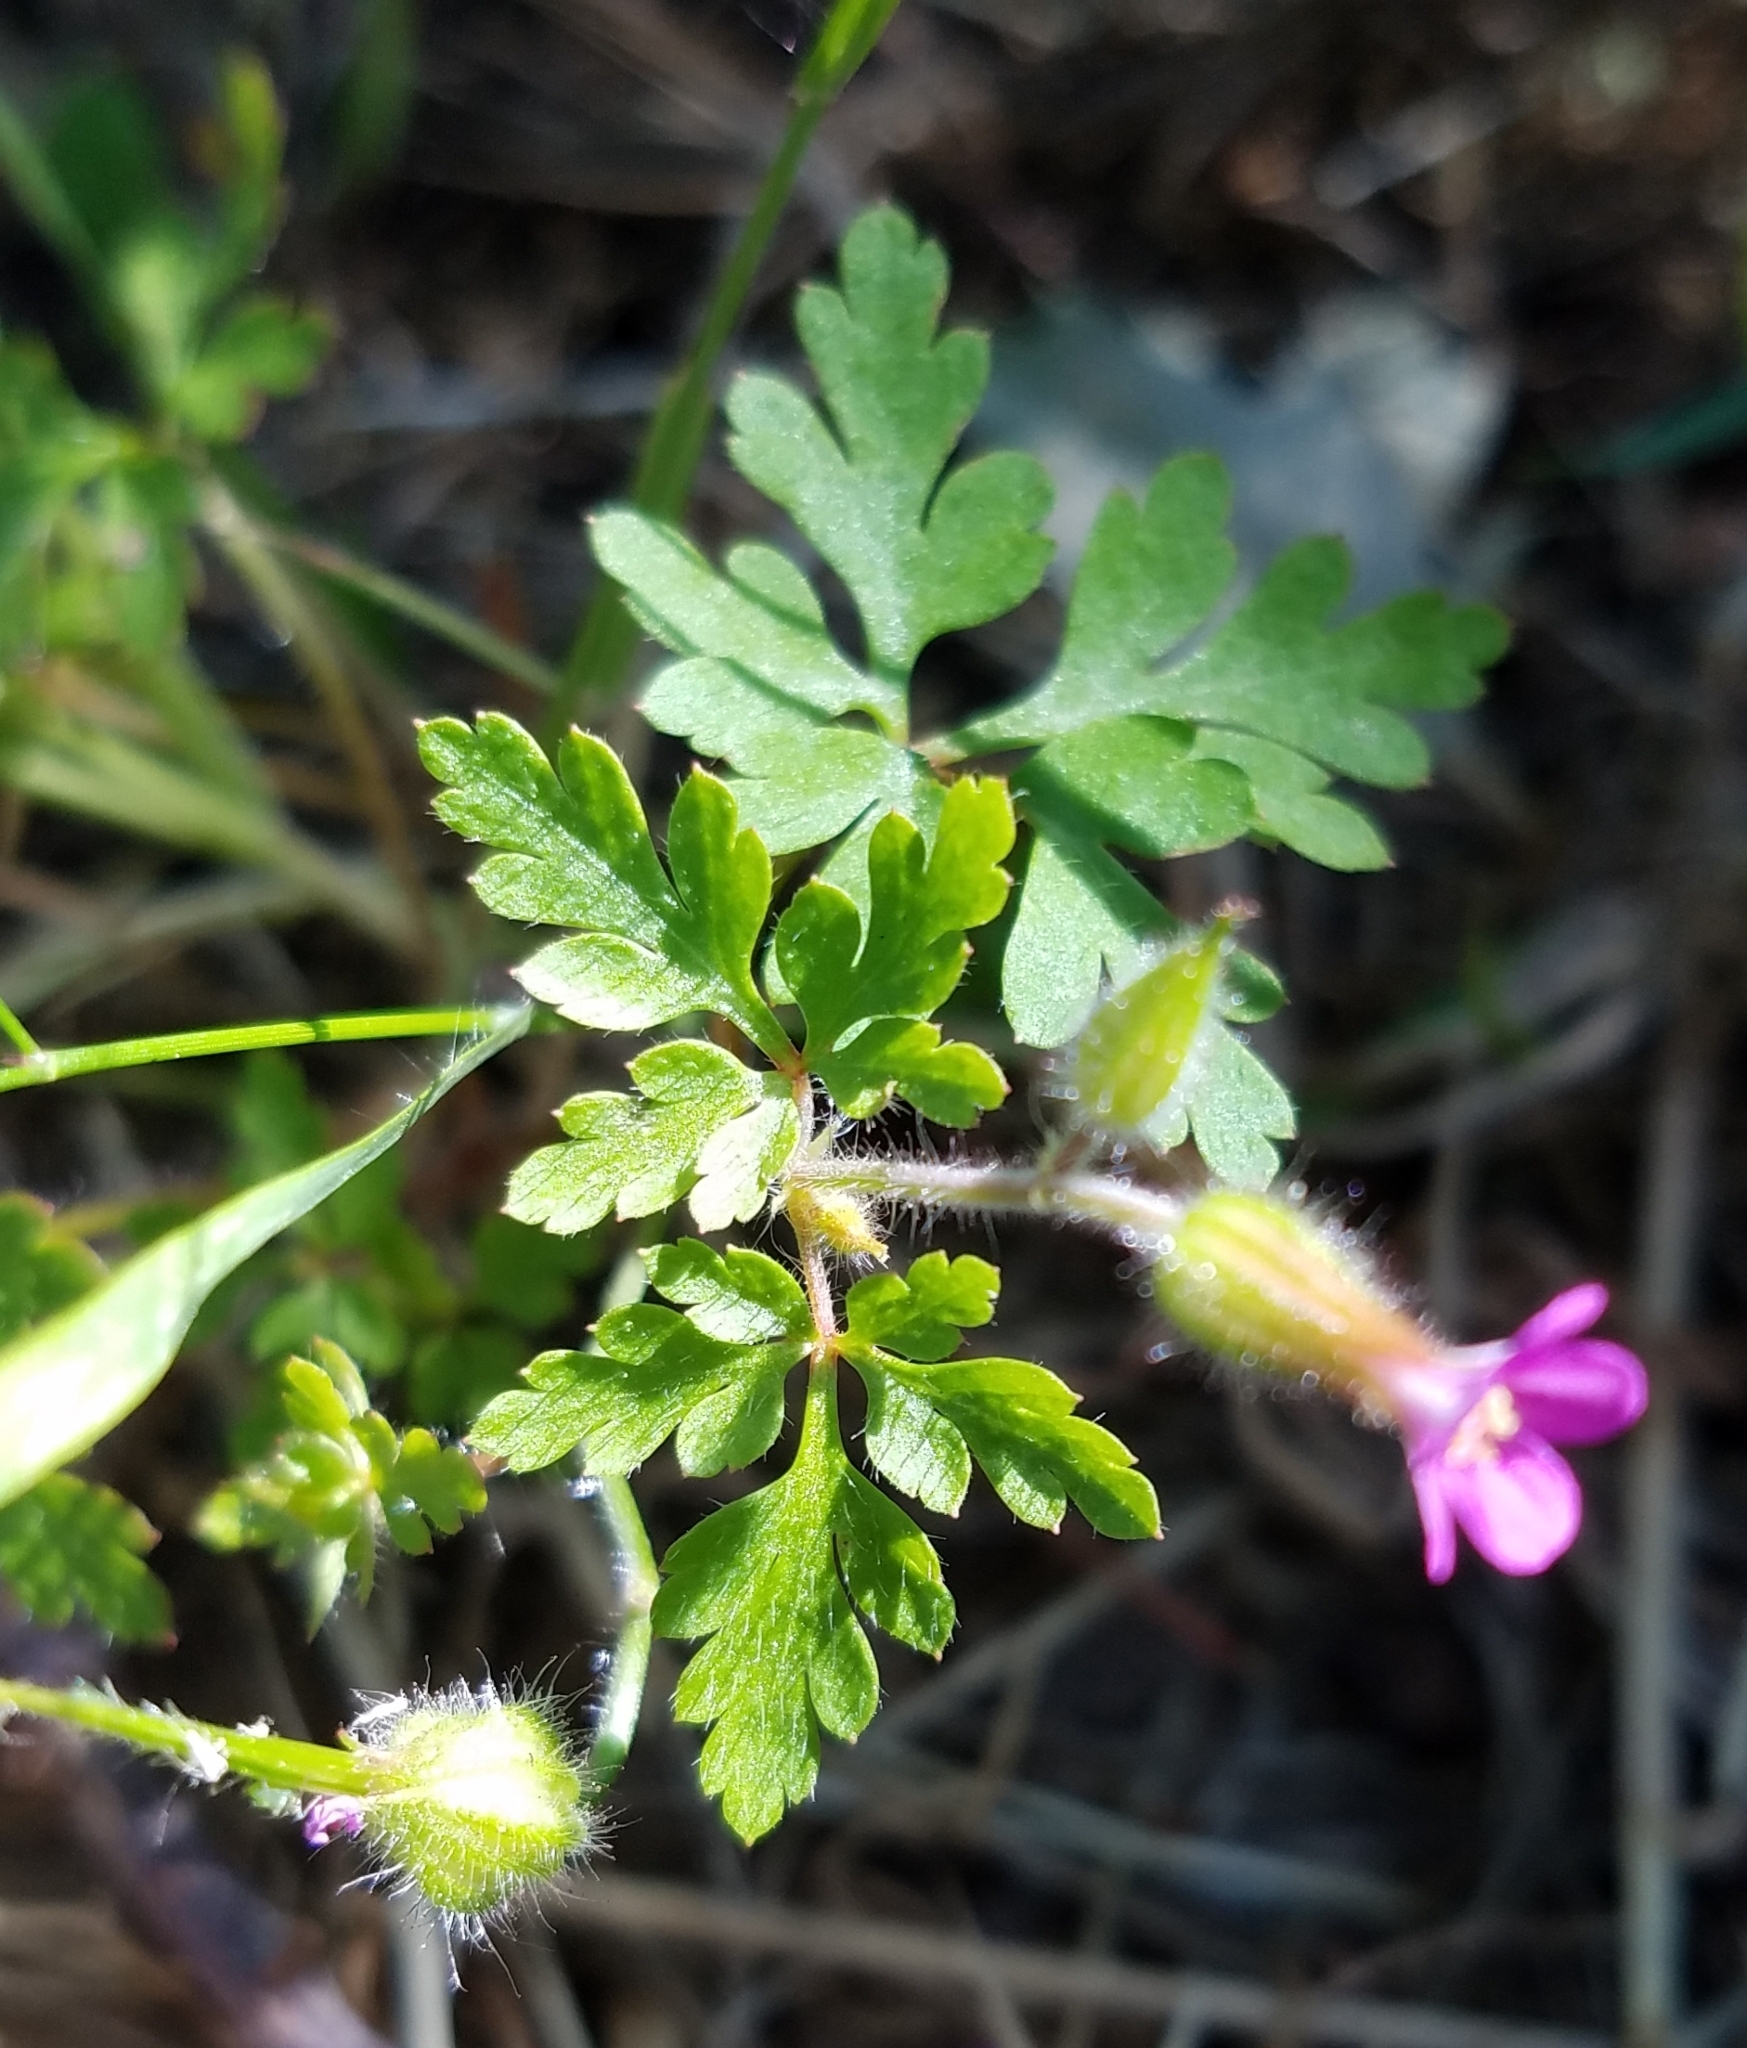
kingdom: Plantae
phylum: Tracheophyta
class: Magnoliopsida
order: Geraniales
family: Geraniaceae
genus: Geranium
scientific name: Geranium purpureum
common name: Little-robin
